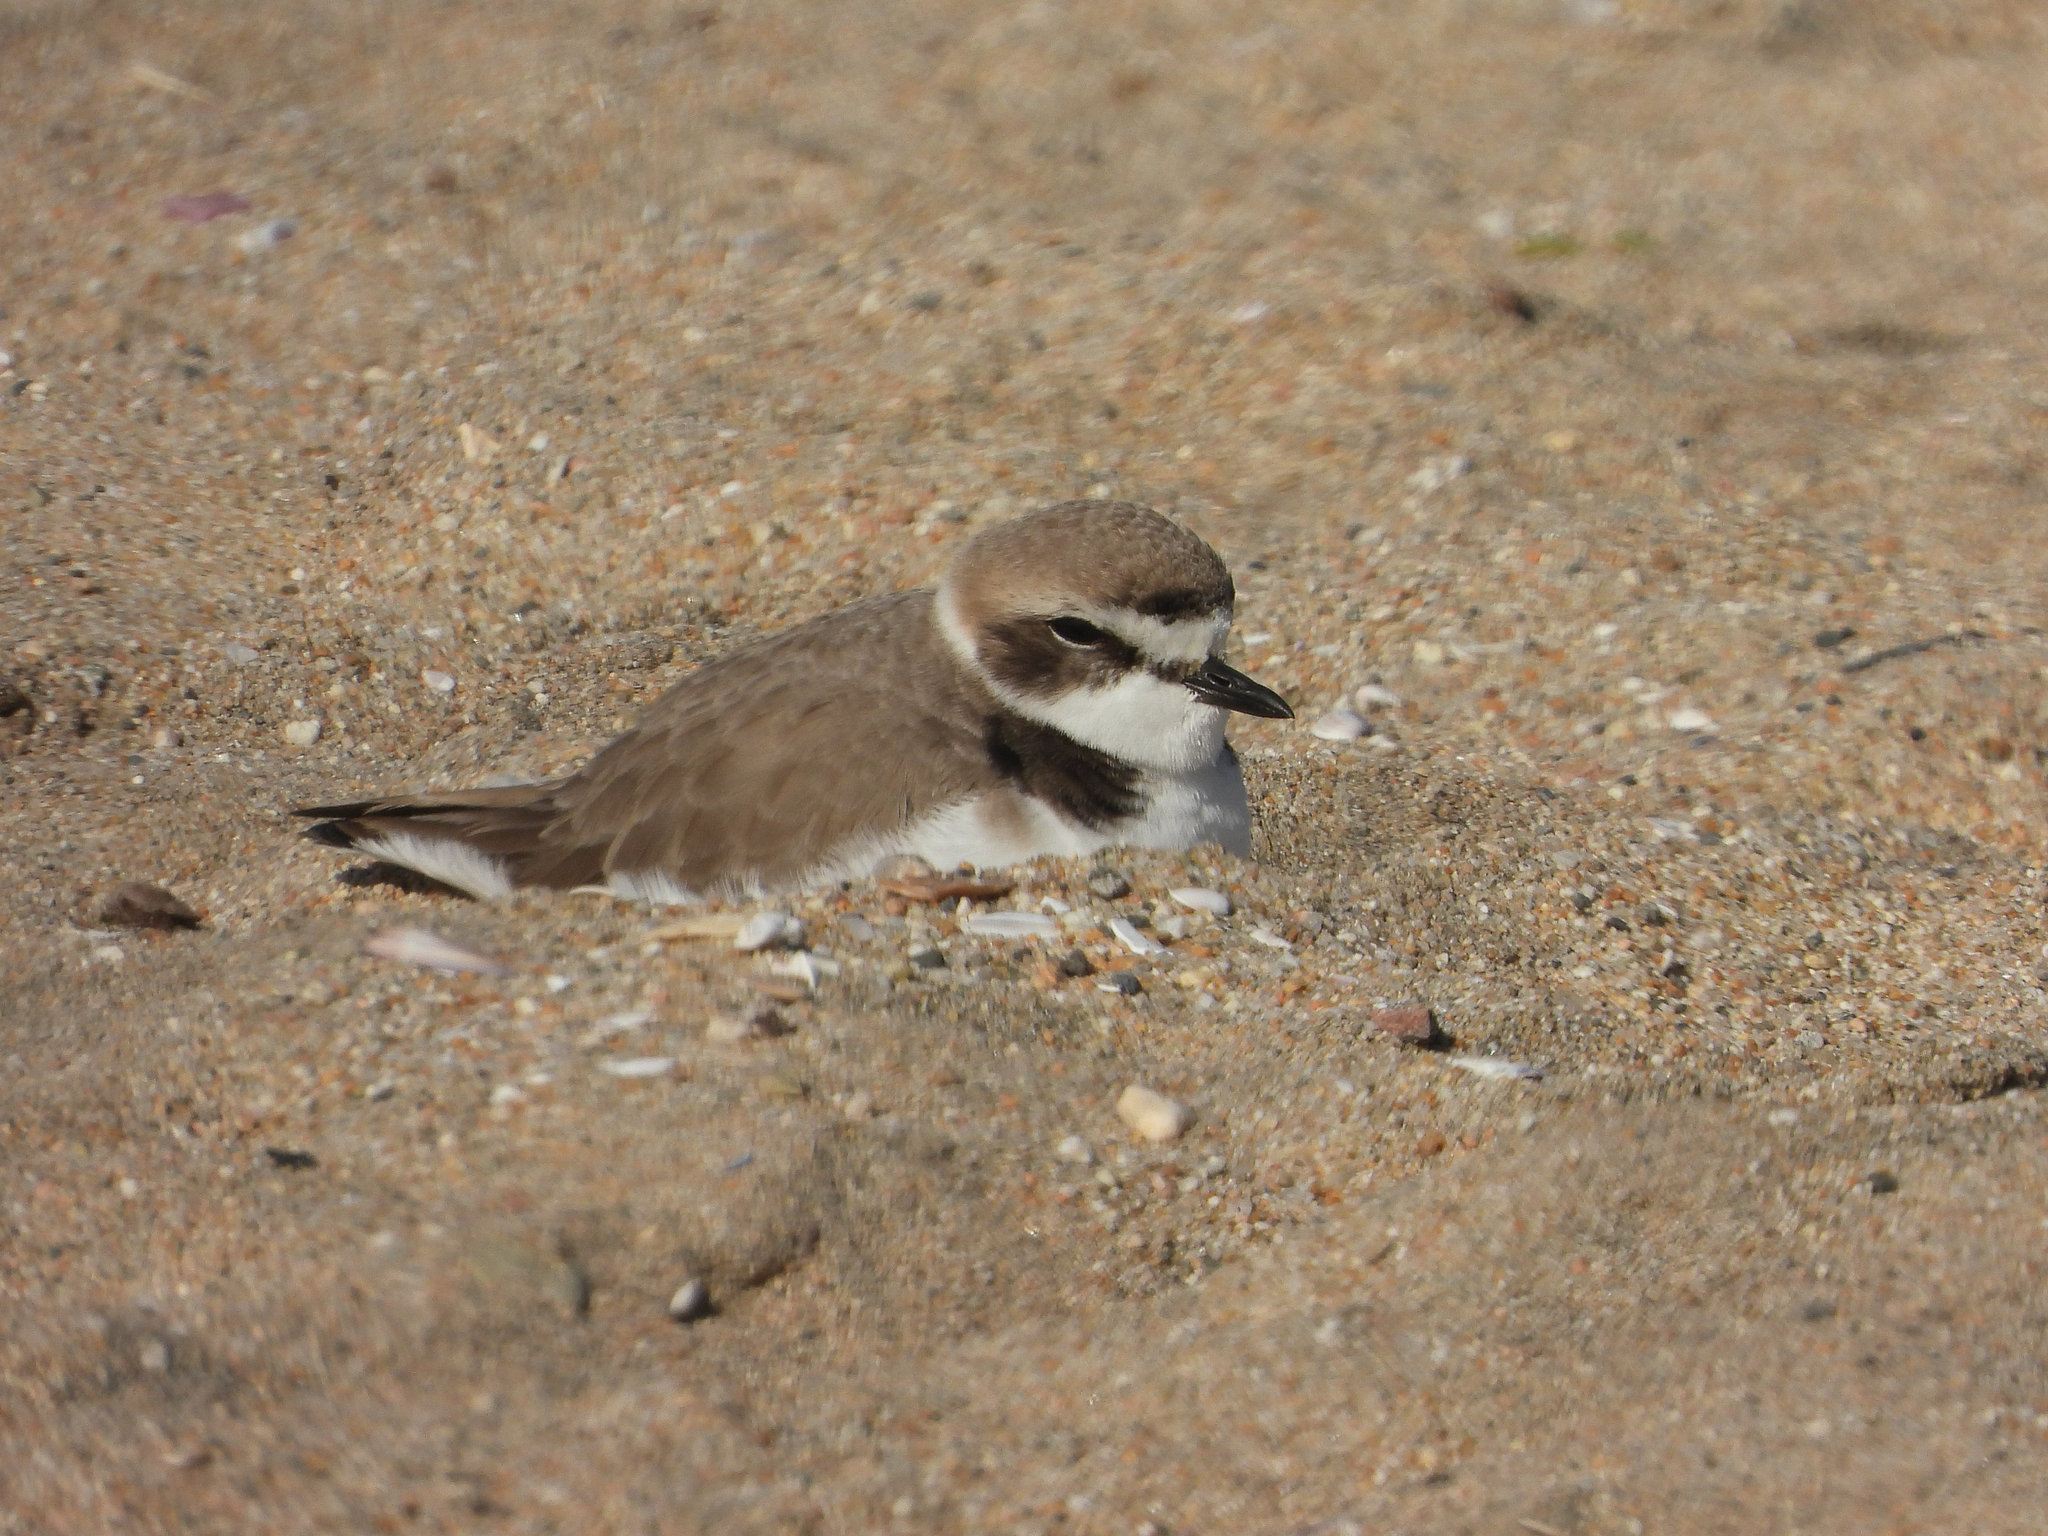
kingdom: Animalia
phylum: Chordata
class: Aves
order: Charadriiformes
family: Charadriidae
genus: Anarhynchus
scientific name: Anarhynchus
